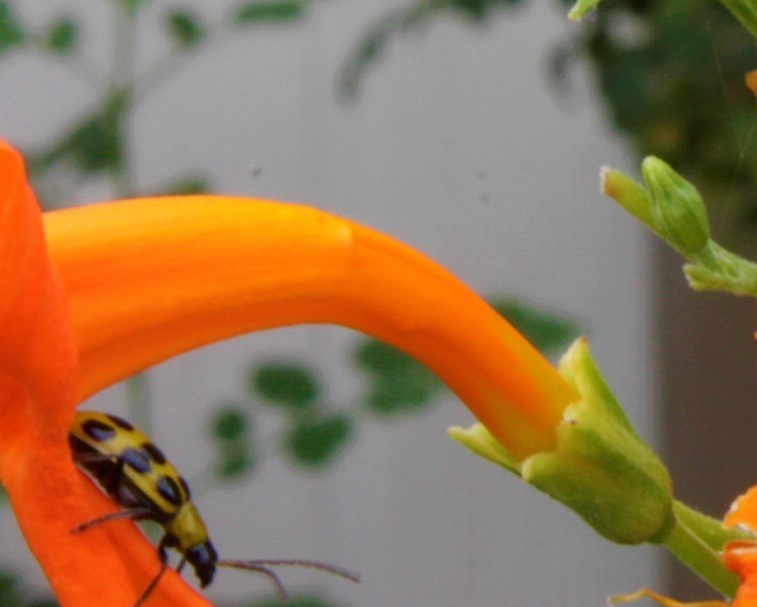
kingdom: Animalia
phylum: Arthropoda
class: Insecta
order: Coleoptera
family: Chrysomelidae
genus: Diabrotica
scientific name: Diabrotica undecimpunctata
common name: Spotted cucumber beetle
